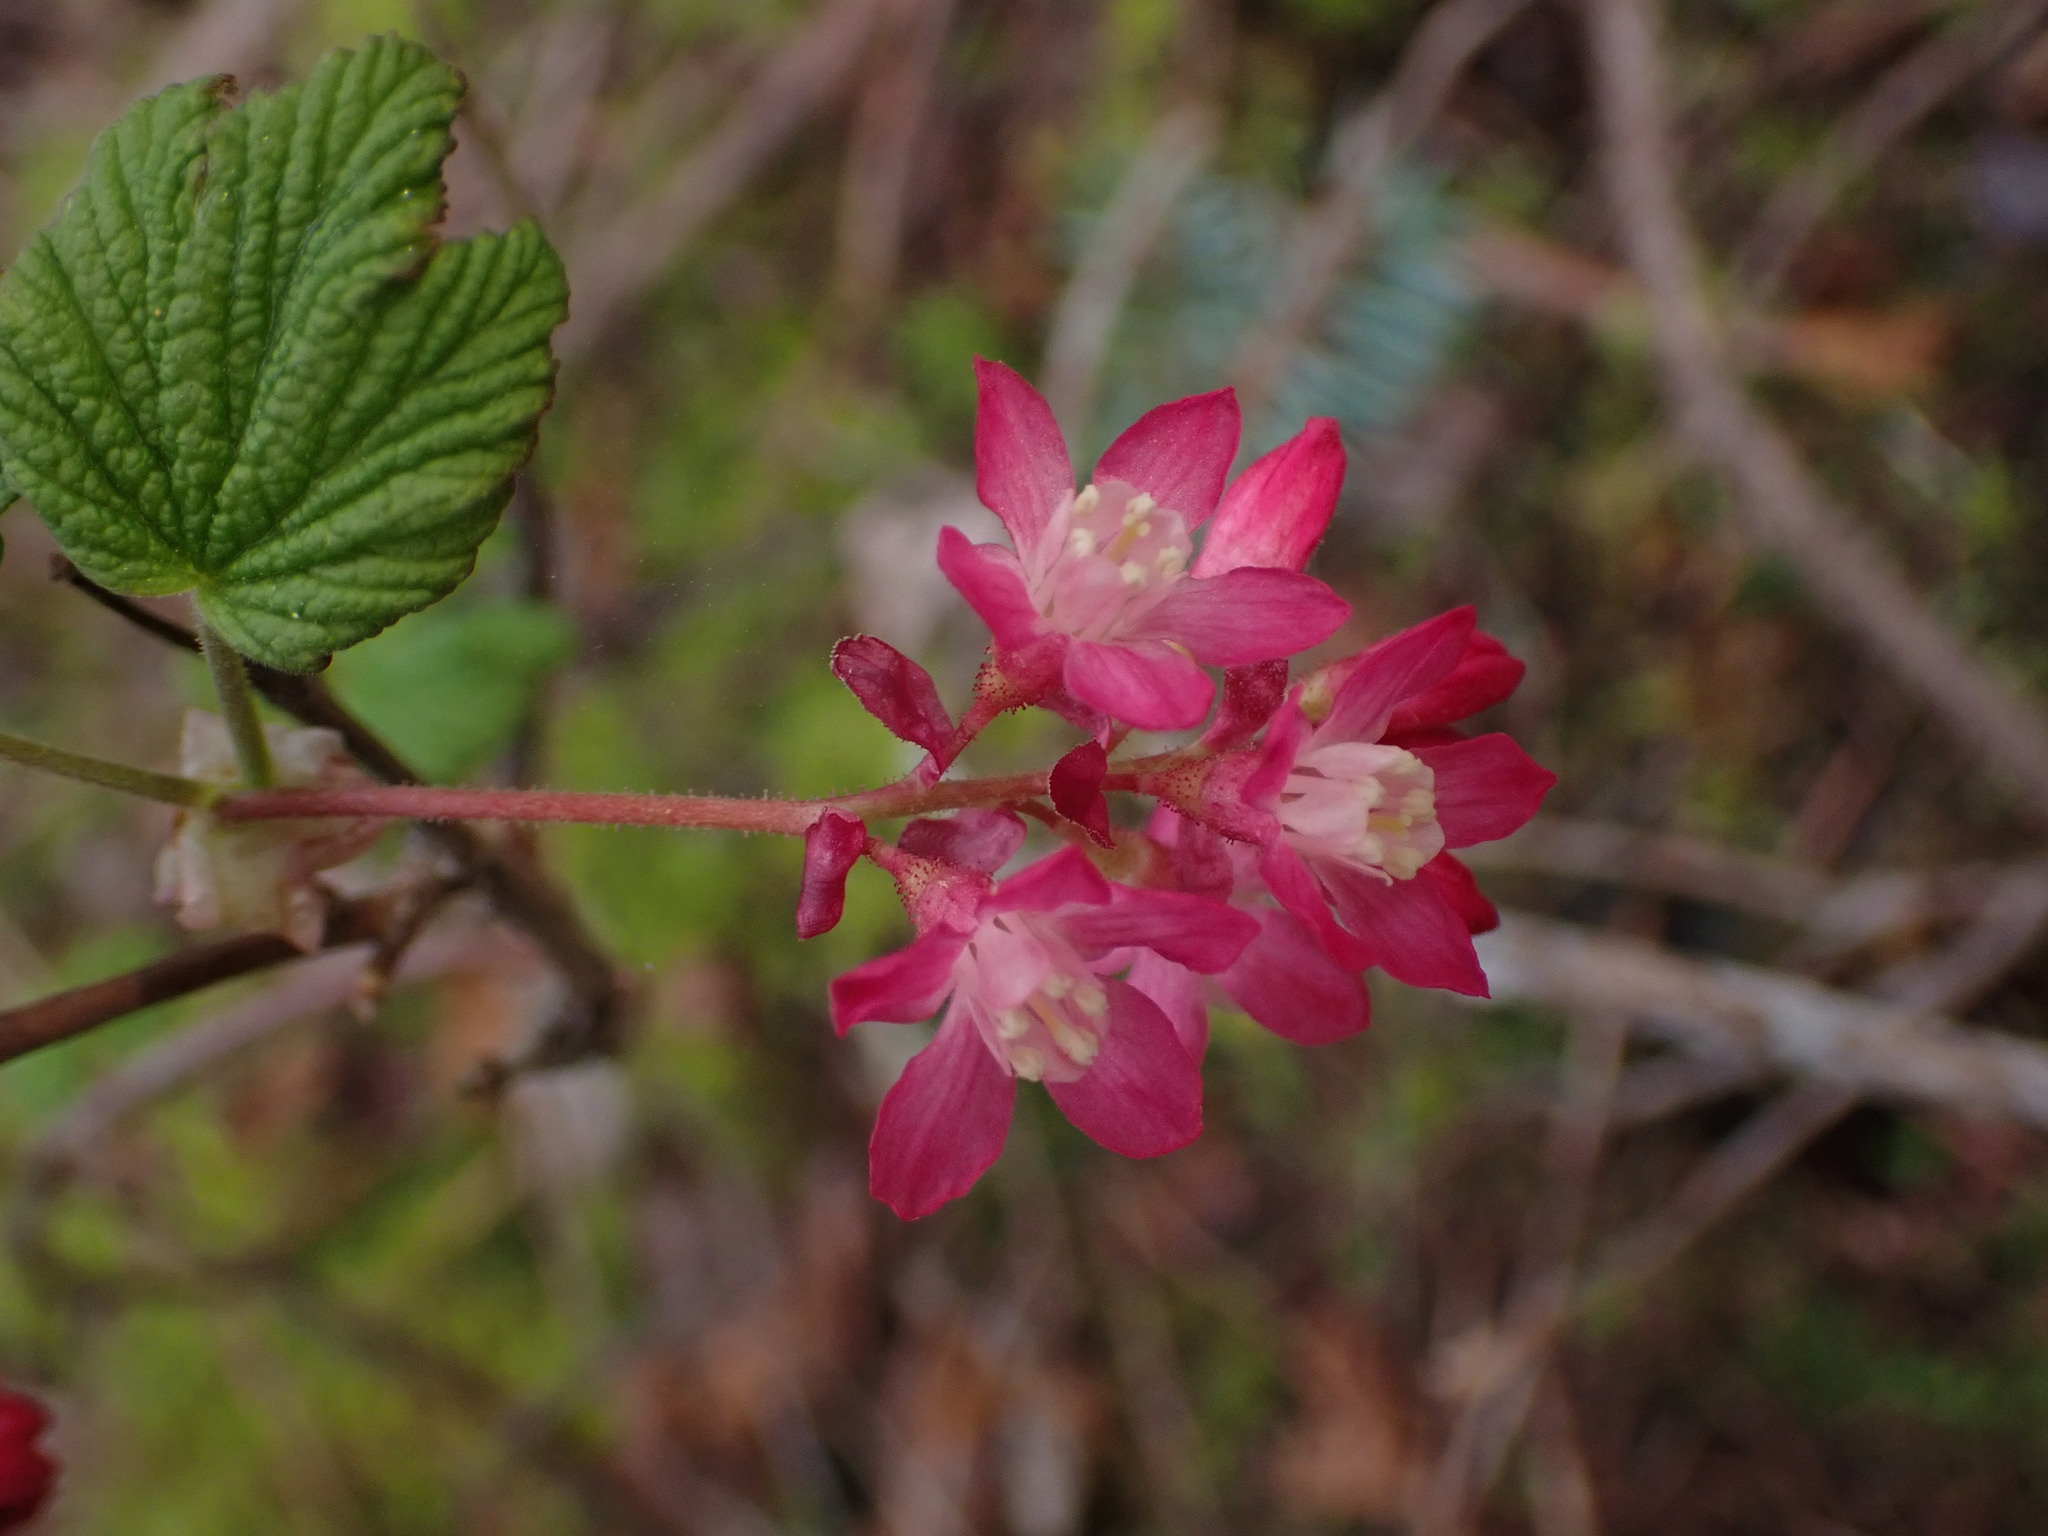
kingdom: Plantae
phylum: Tracheophyta
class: Magnoliopsida
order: Saxifragales
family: Grossulariaceae
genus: Ribes
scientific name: Ribes sanguineum
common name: Flowering currant
